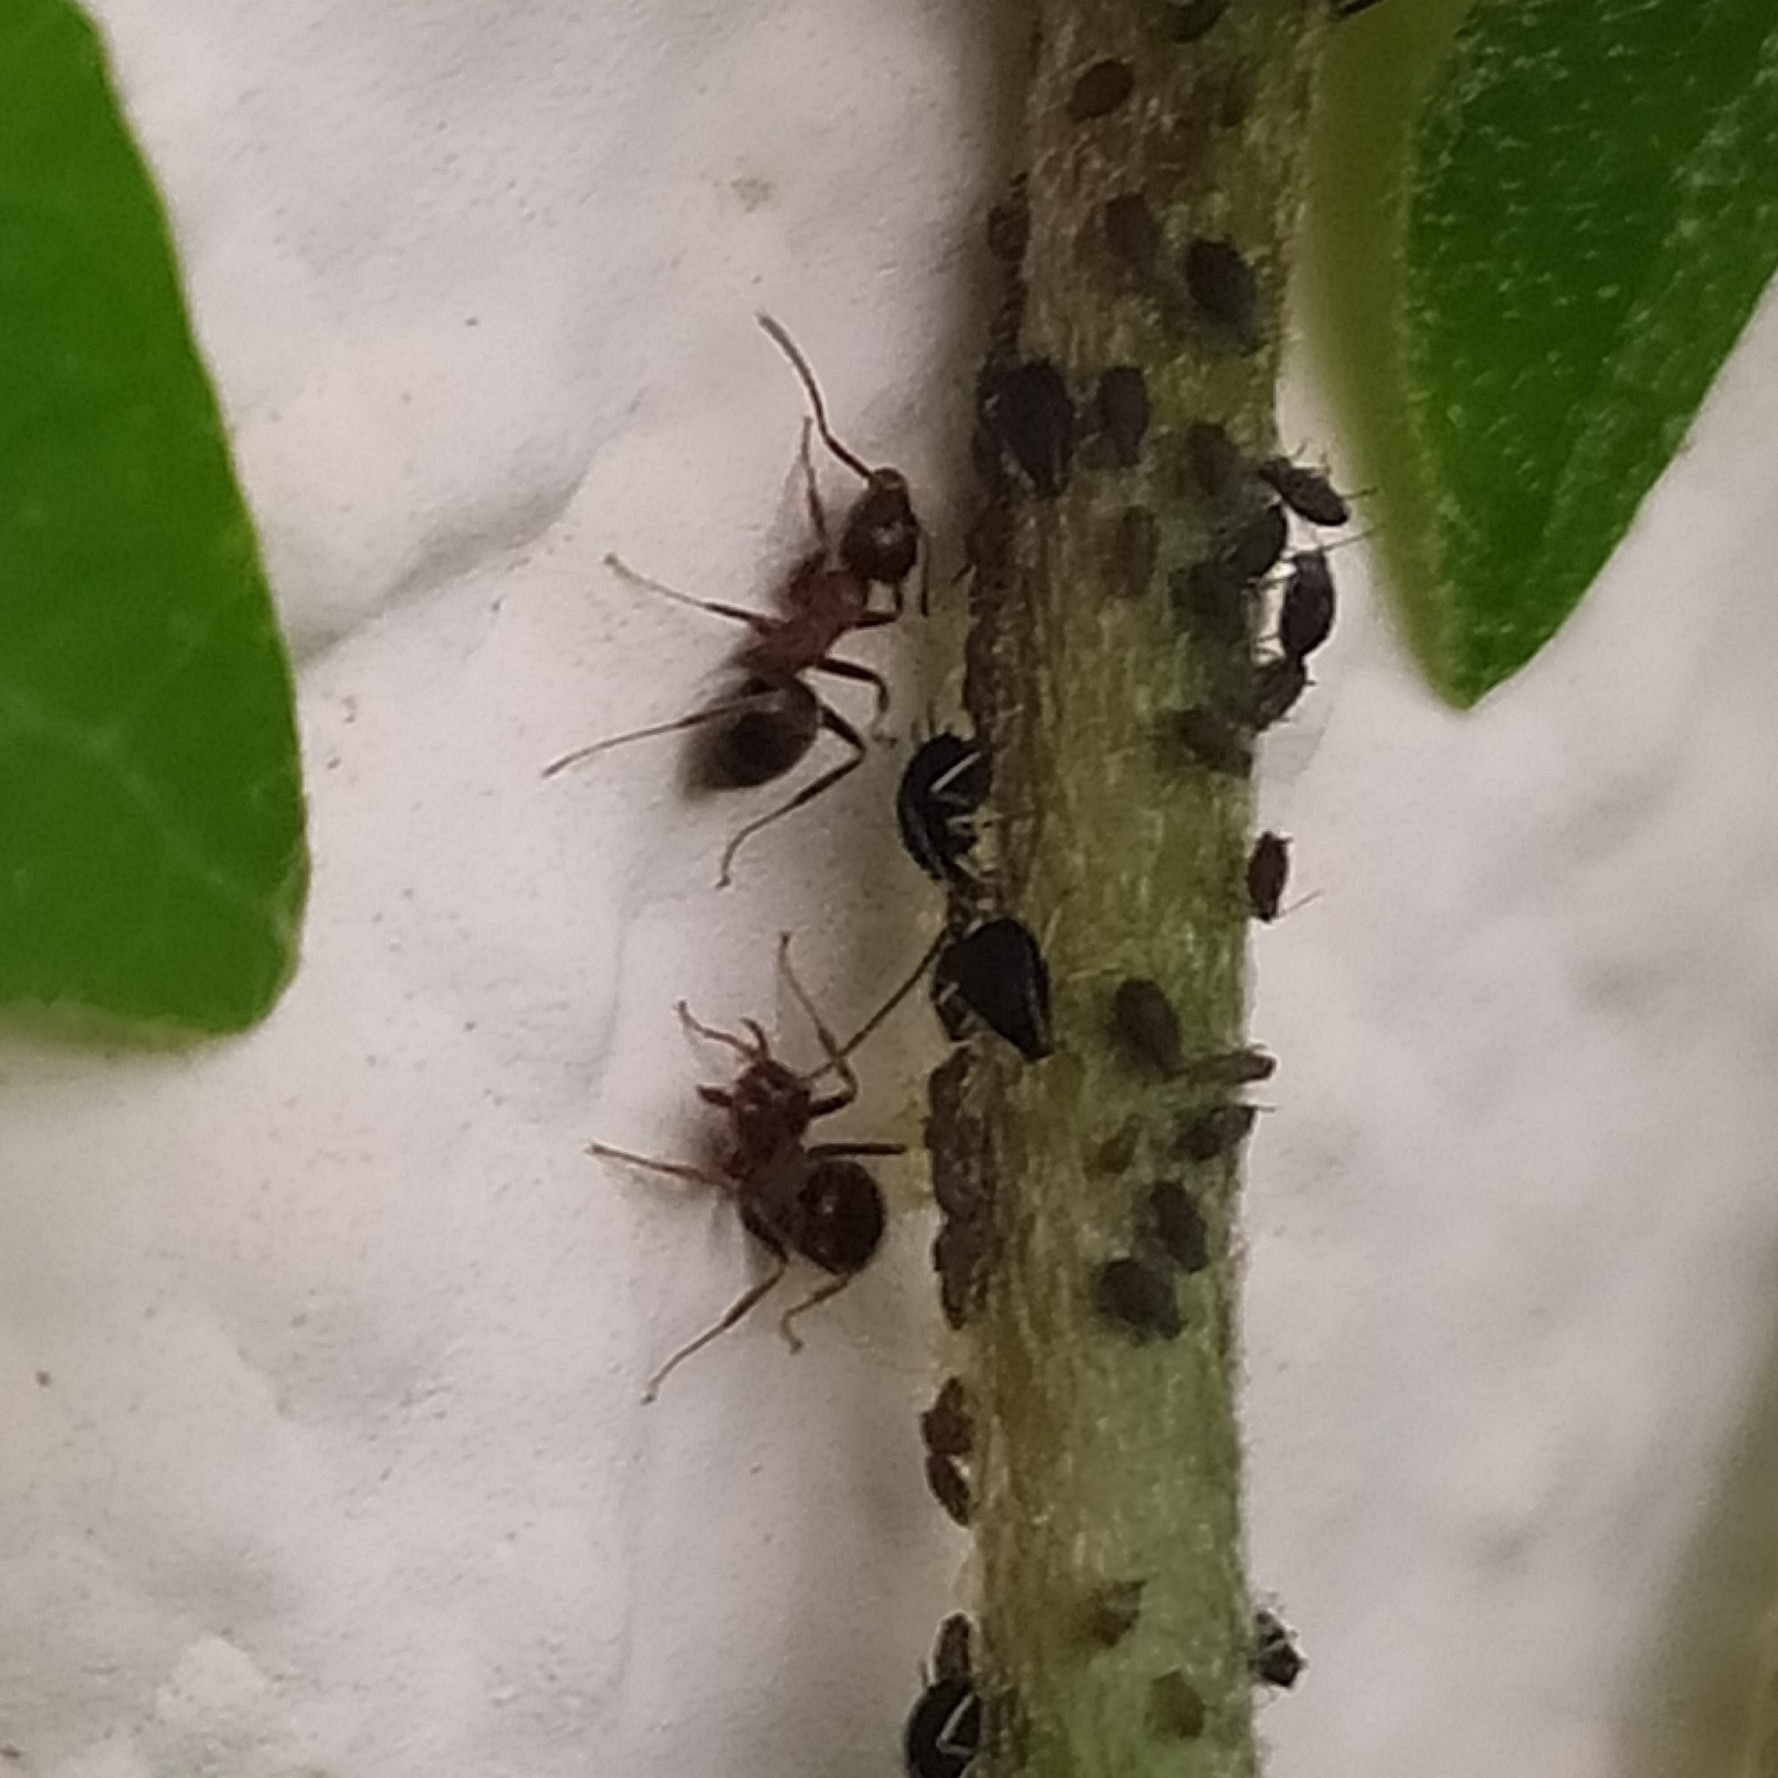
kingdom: Animalia
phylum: Arthropoda
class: Insecta
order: Hymenoptera
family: Formicidae
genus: Lasius
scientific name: Lasius emarginatus
